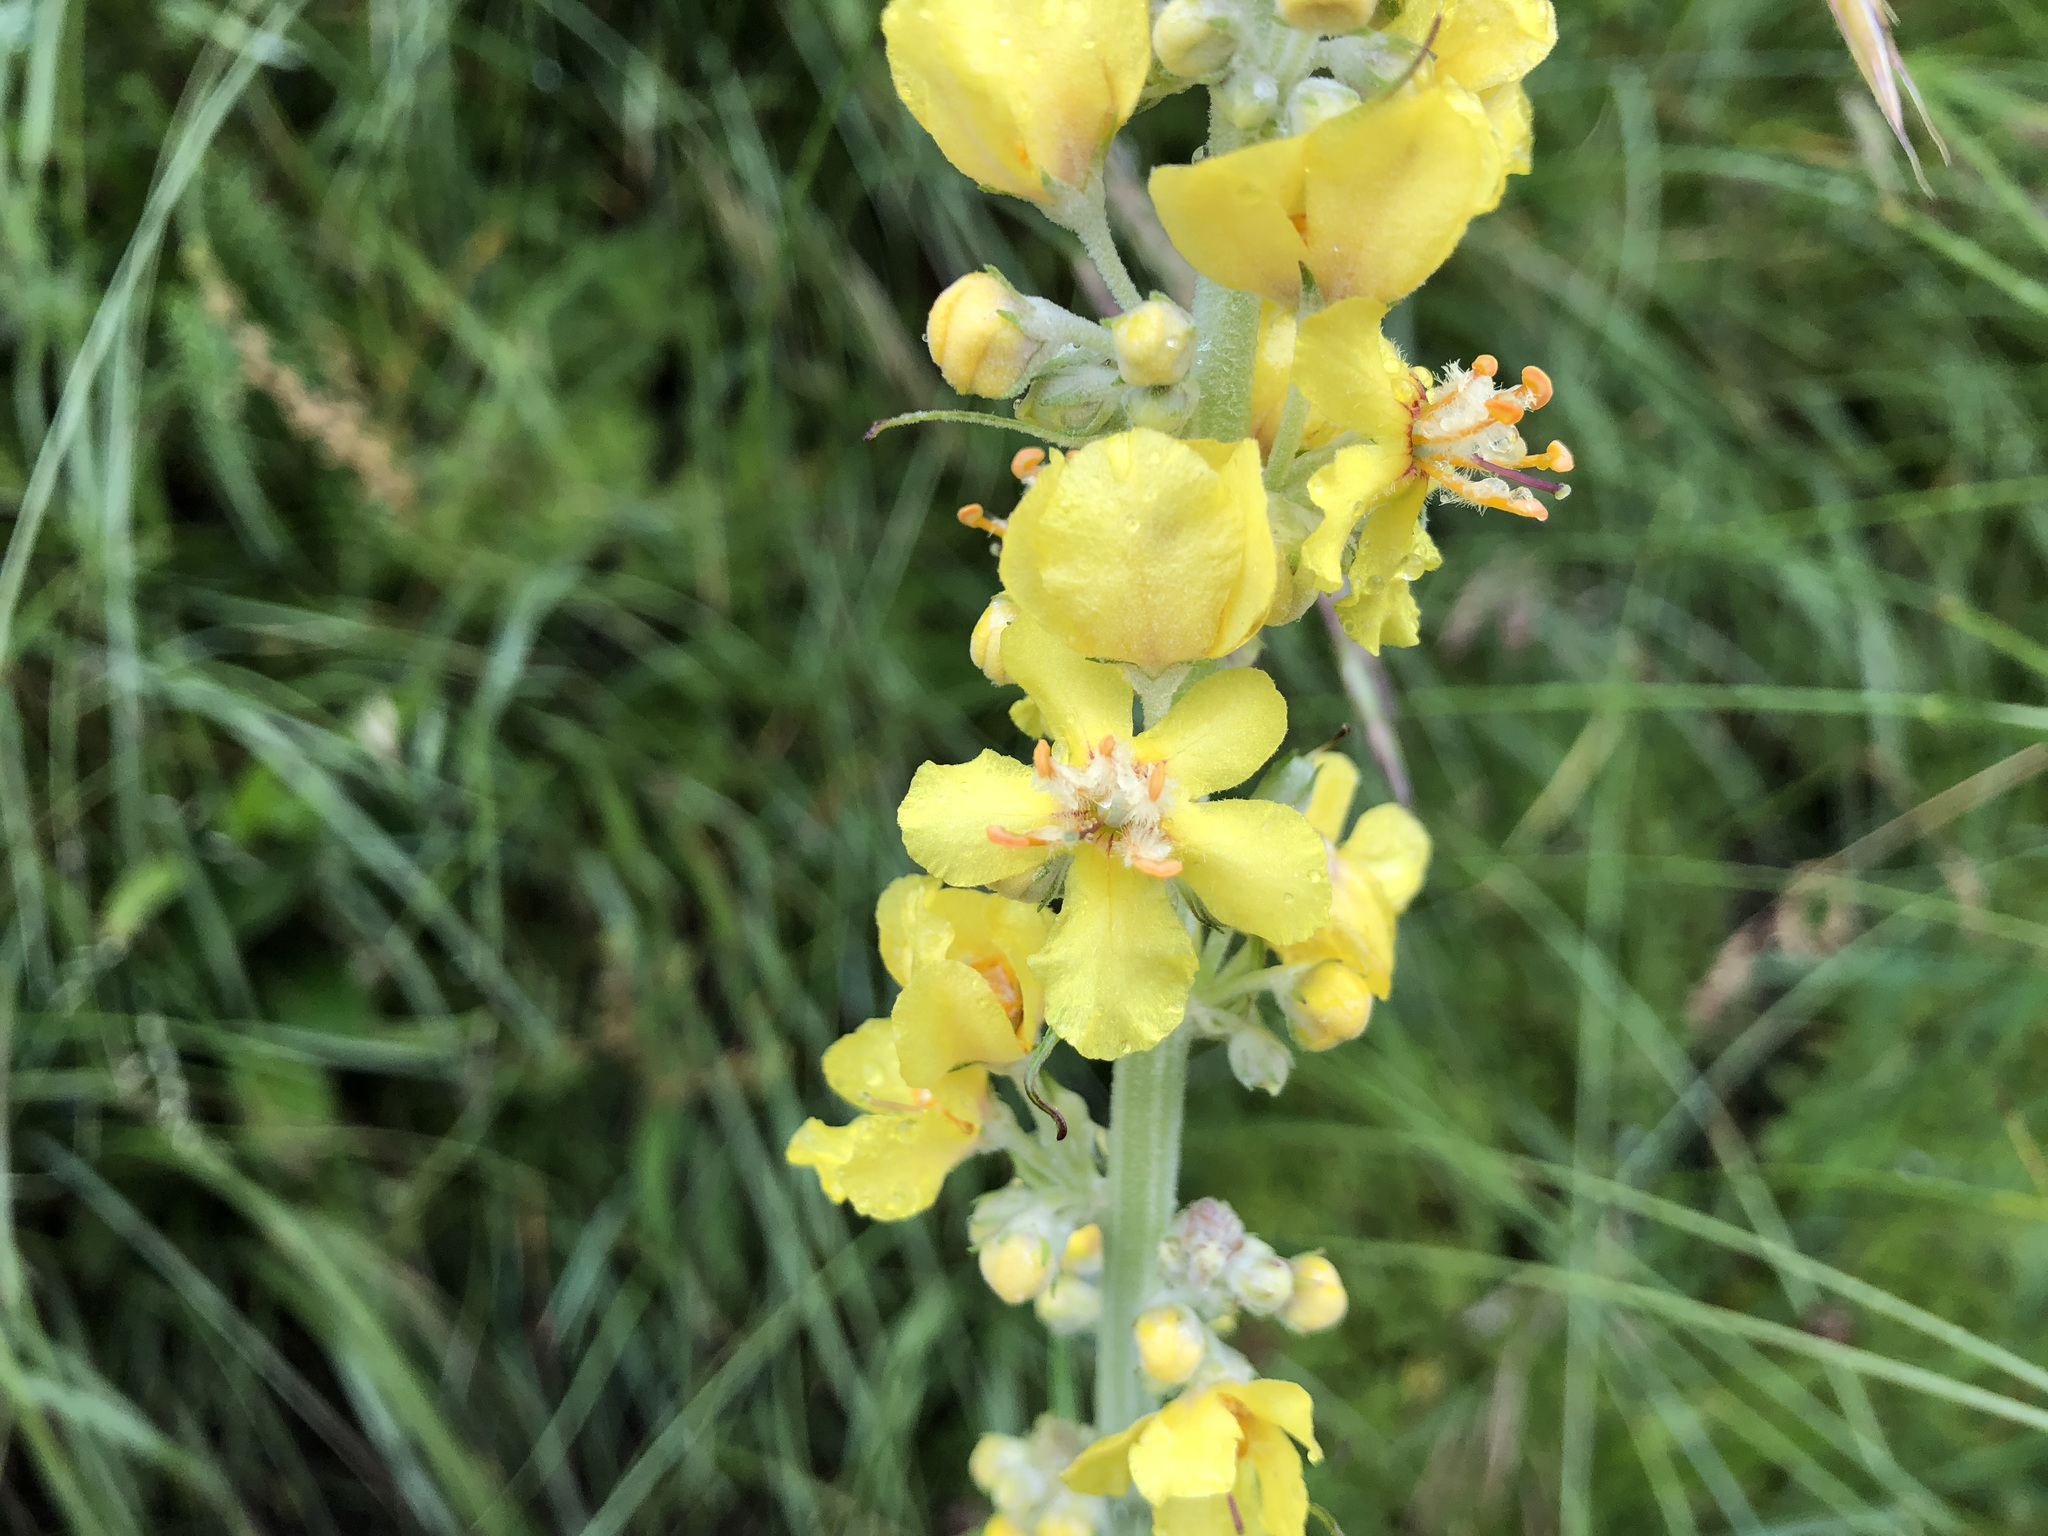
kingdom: Plantae
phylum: Tracheophyta
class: Magnoliopsida
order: Lamiales
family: Scrophulariaceae
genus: Verbascum
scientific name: Verbascum lychnitis
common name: White mullein
